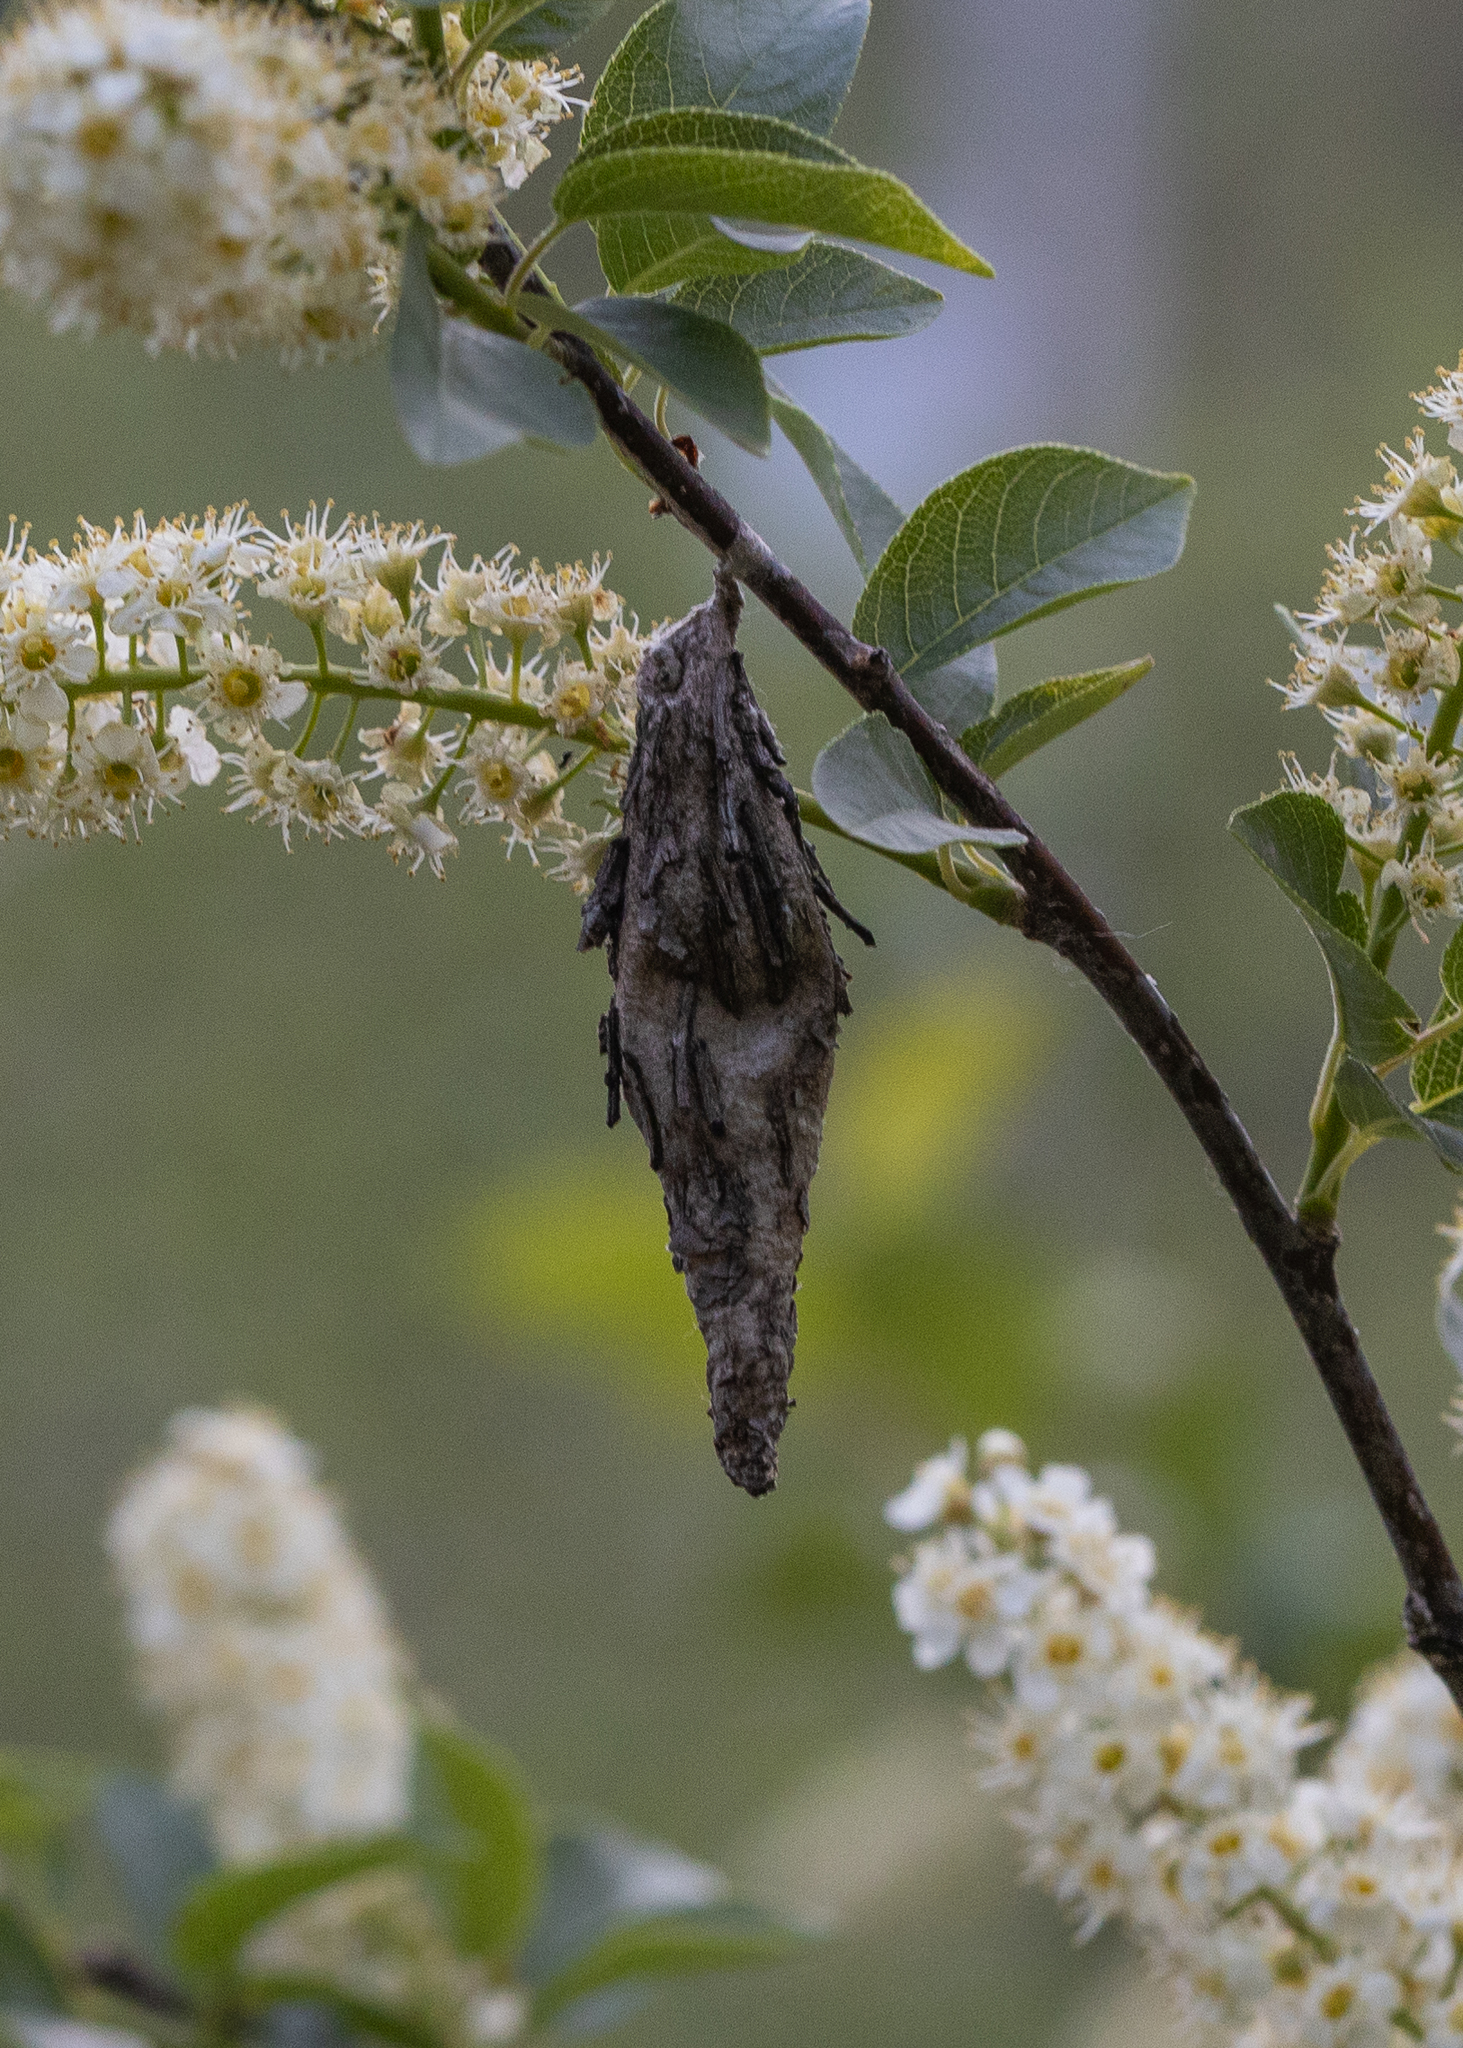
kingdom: Animalia
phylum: Arthropoda
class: Insecta
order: Lepidoptera
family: Psychidae
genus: Thyridopteryx
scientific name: Thyridopteryx ephemeraeformis
